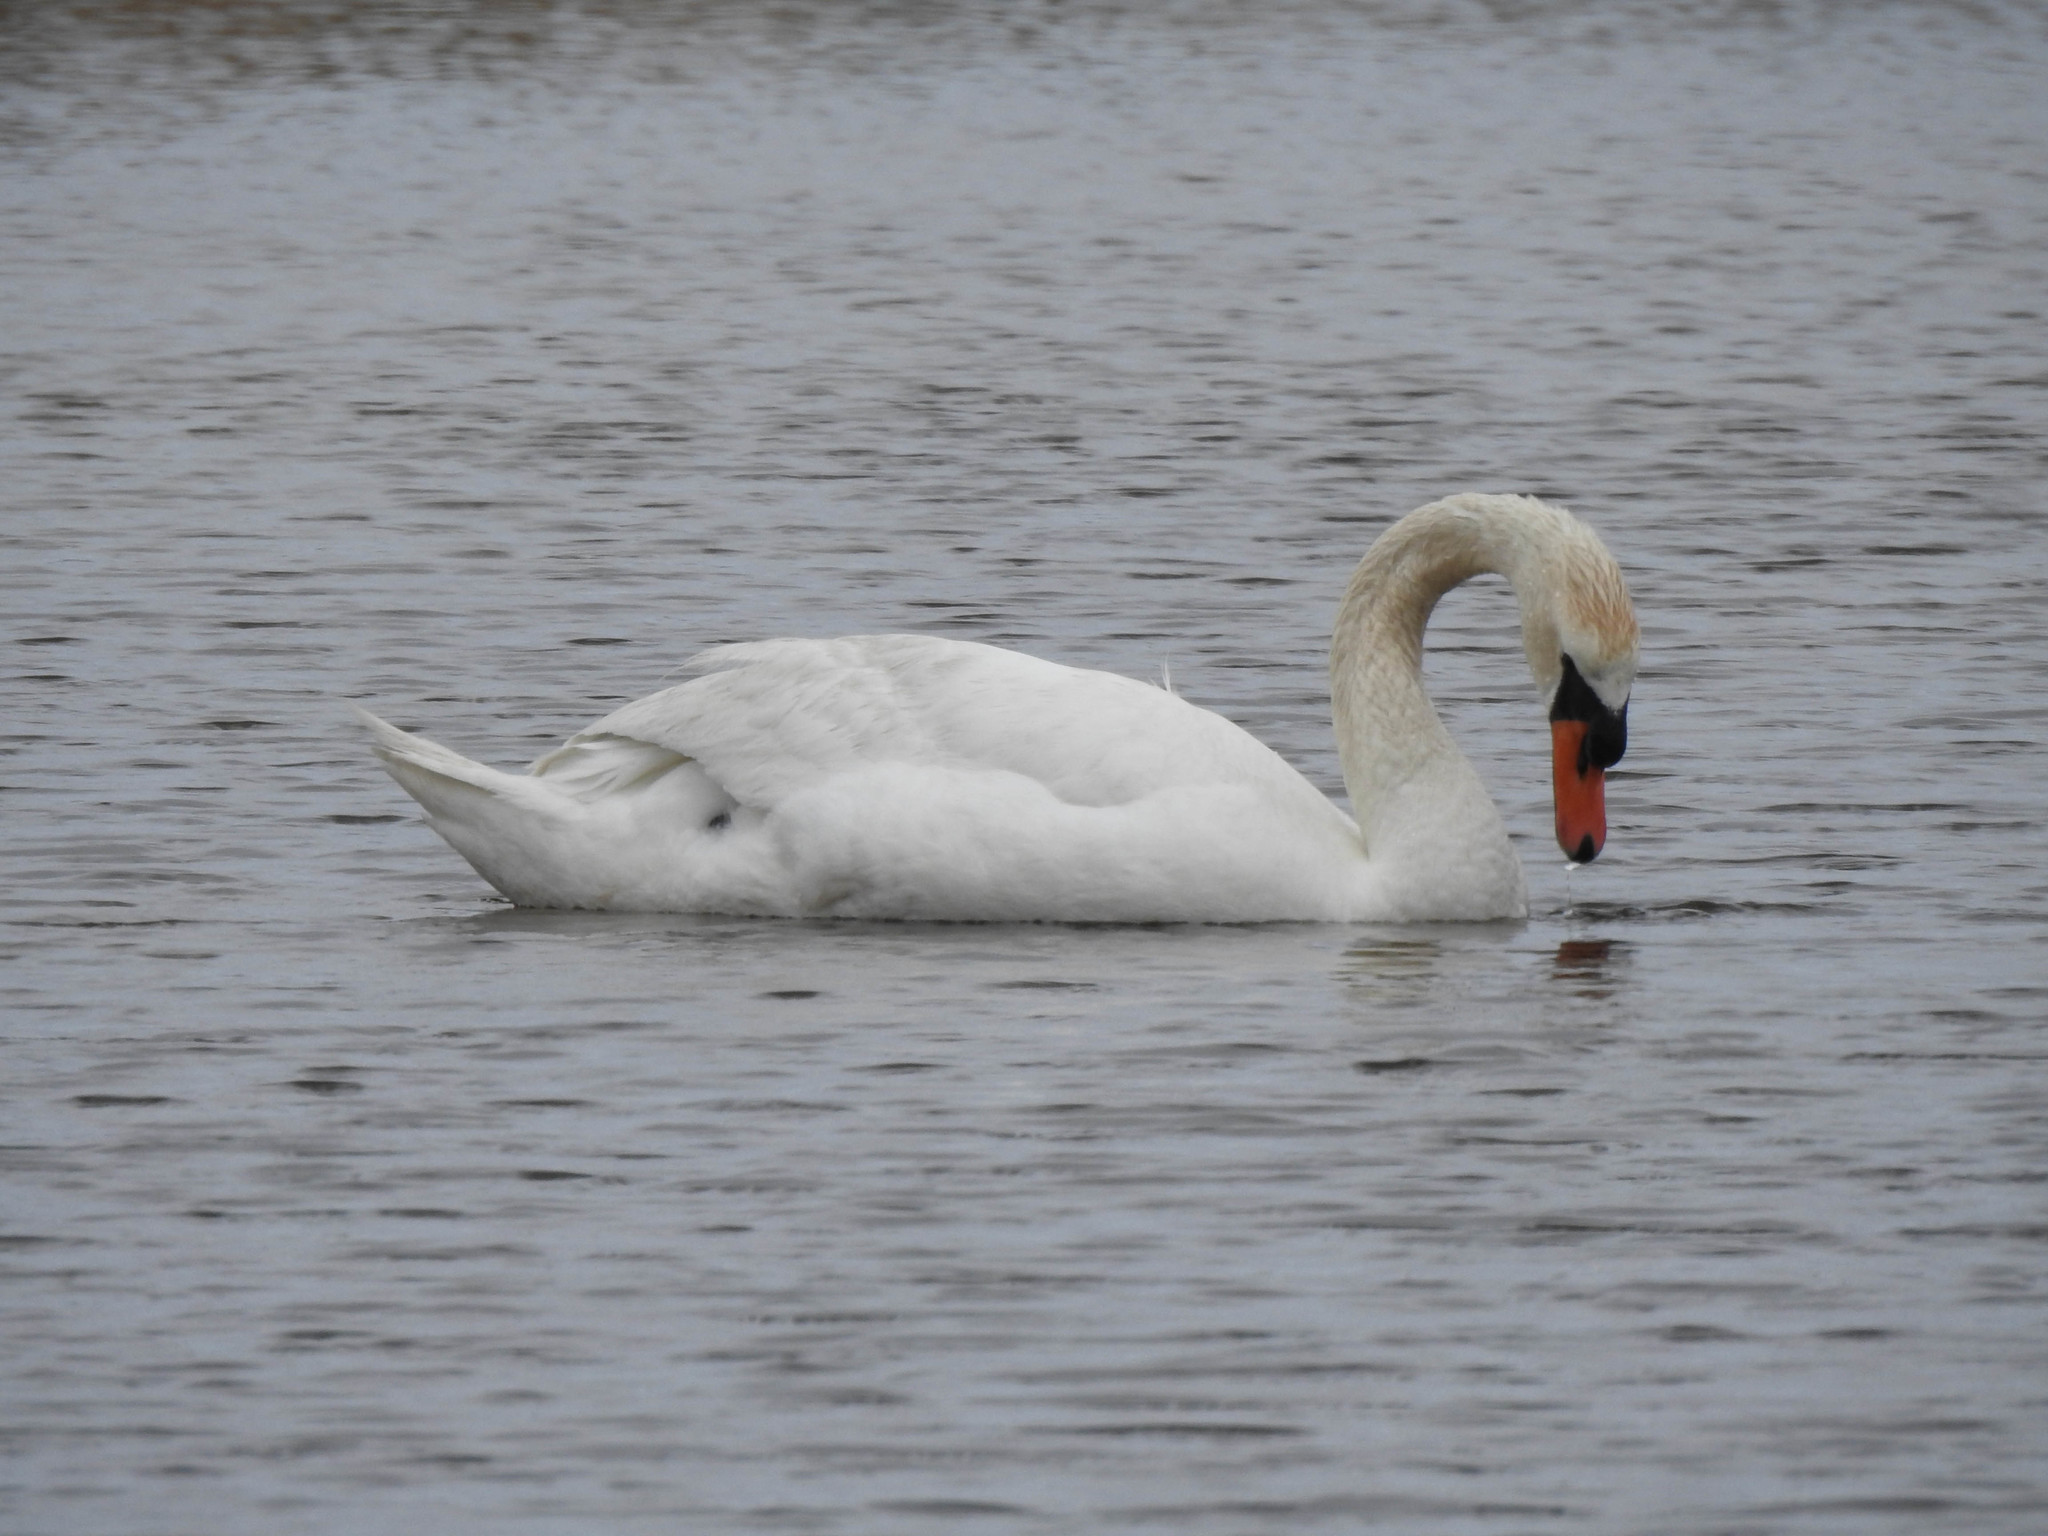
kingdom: Animalia
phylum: Chordata
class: Aves
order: Anseriformes
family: Anatidae
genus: Cygnus
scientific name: Cygnus olor
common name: Mute swan
